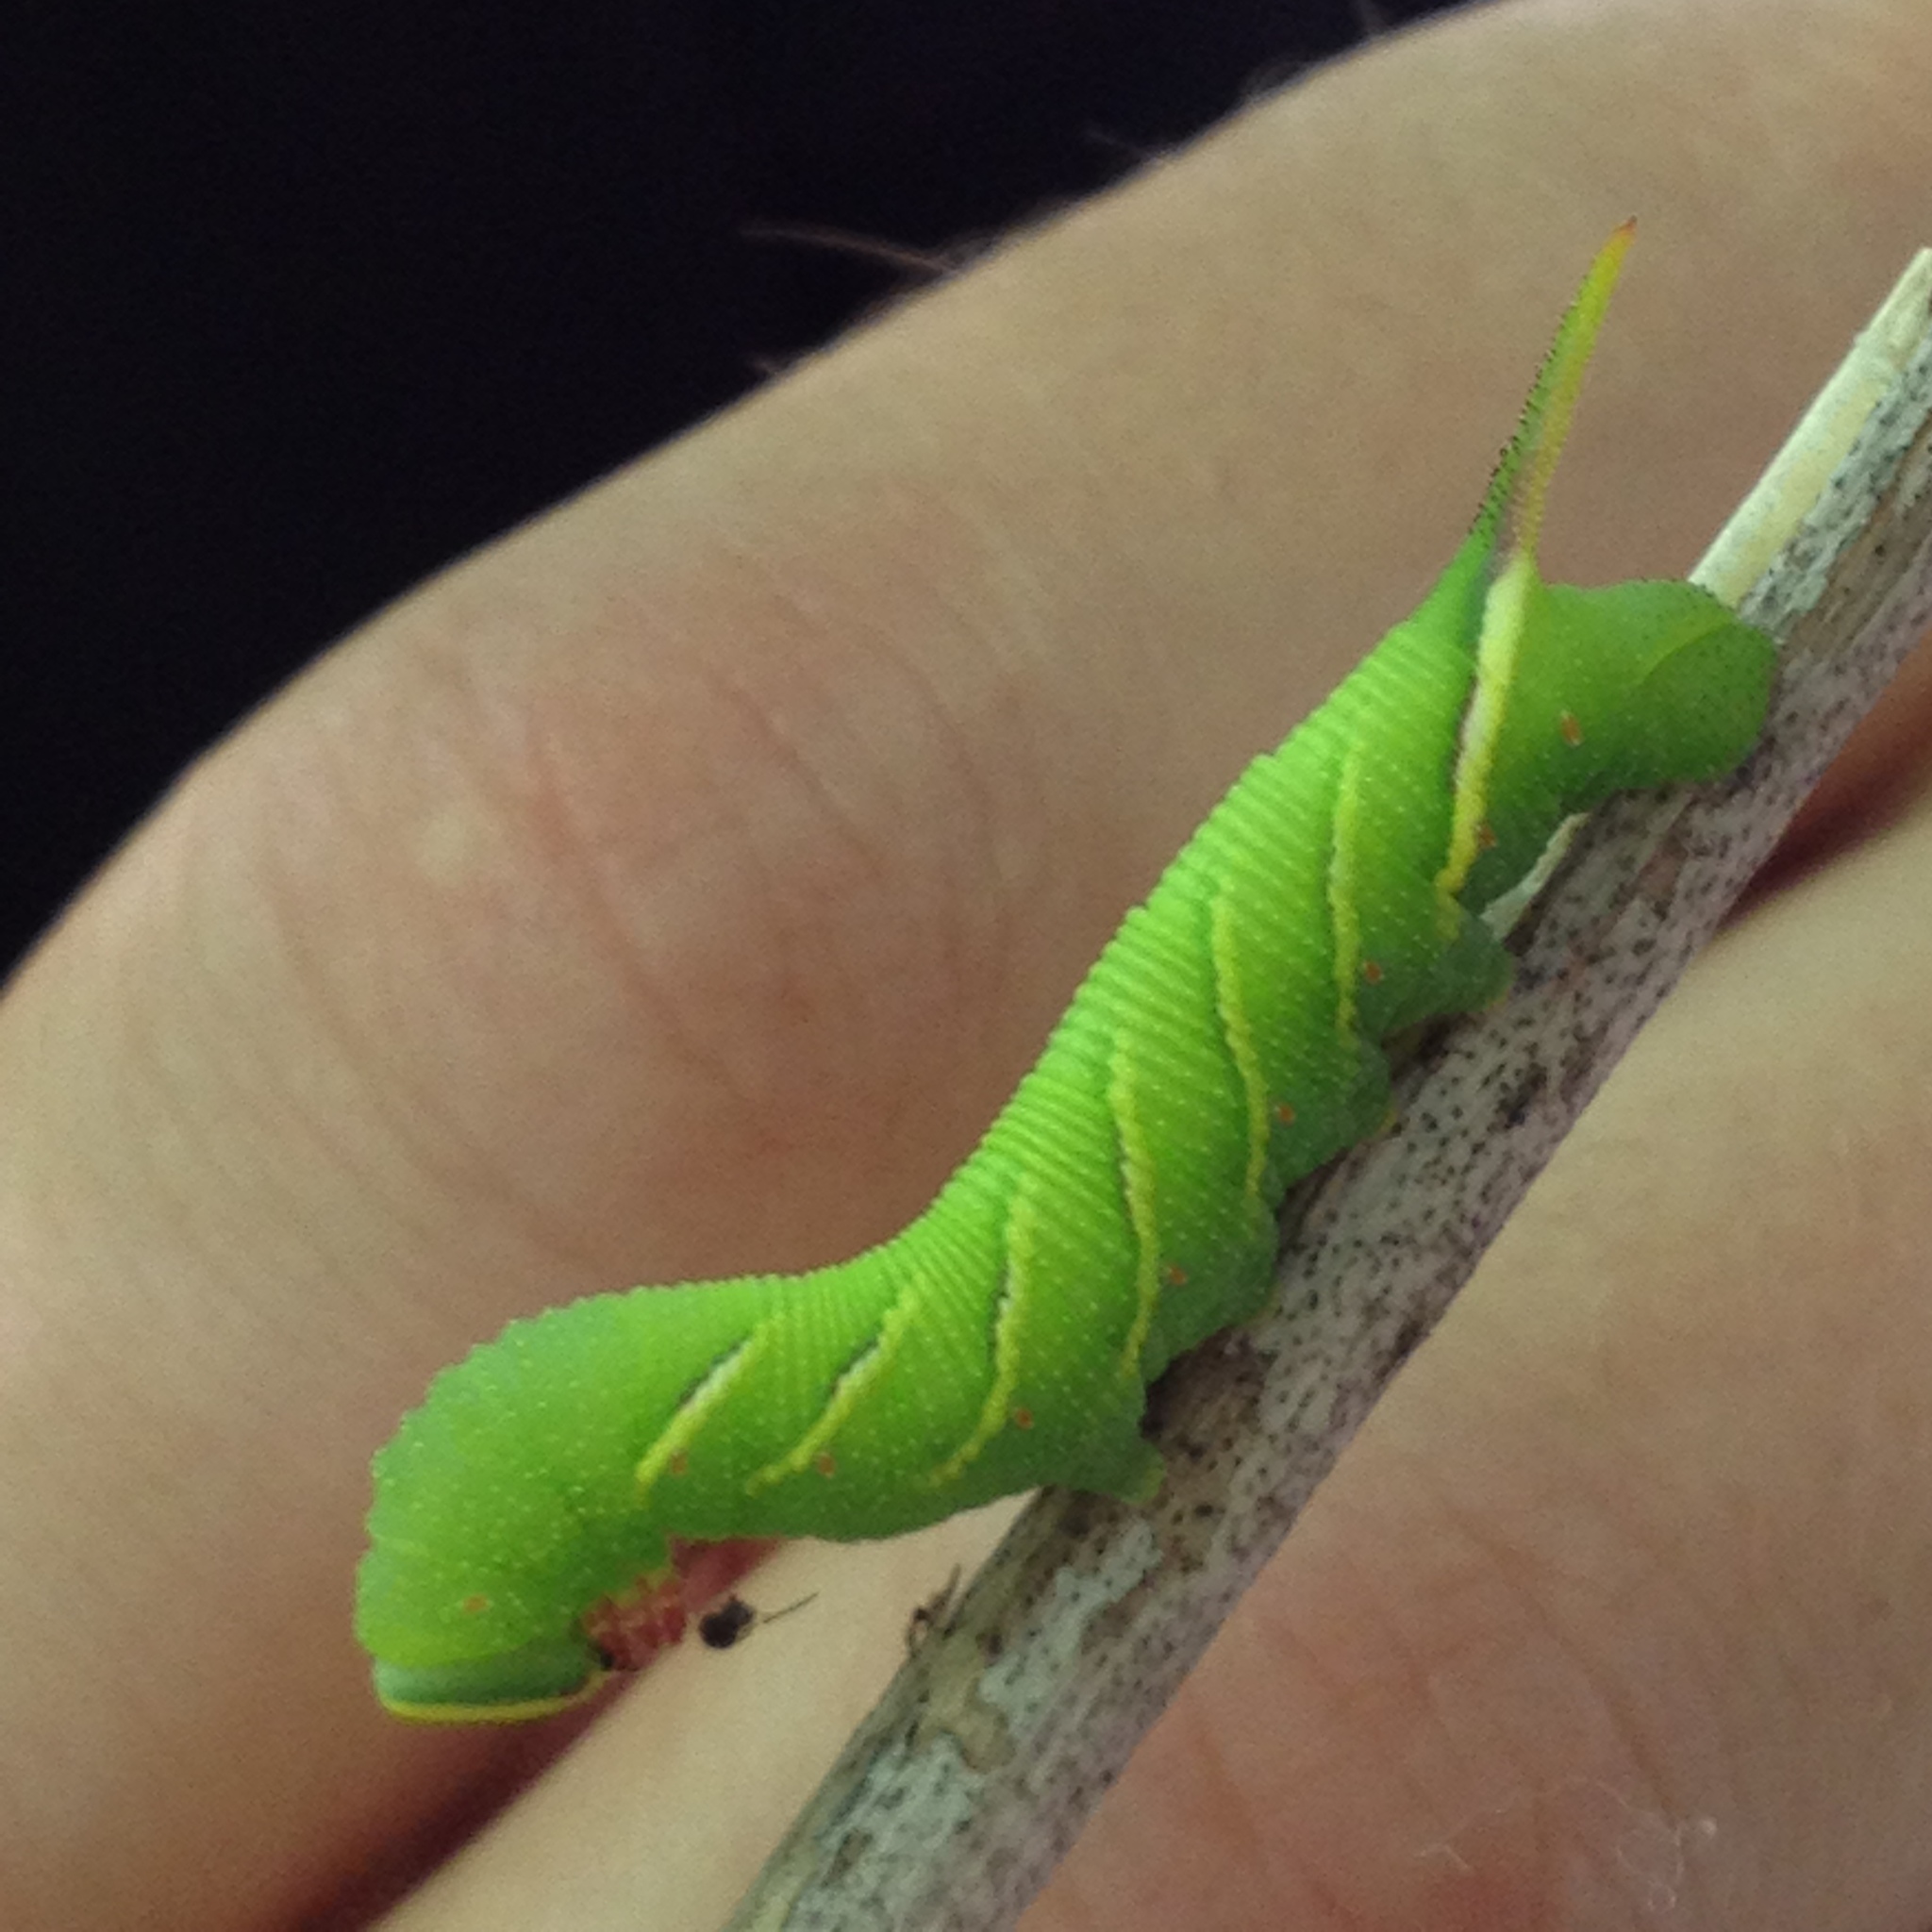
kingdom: Animalia
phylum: Arthropoda
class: Insecta
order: Lepidoptera
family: Sphingidae
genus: Ceratomia
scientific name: Ceratomia undulosa
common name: Waved sphinx
